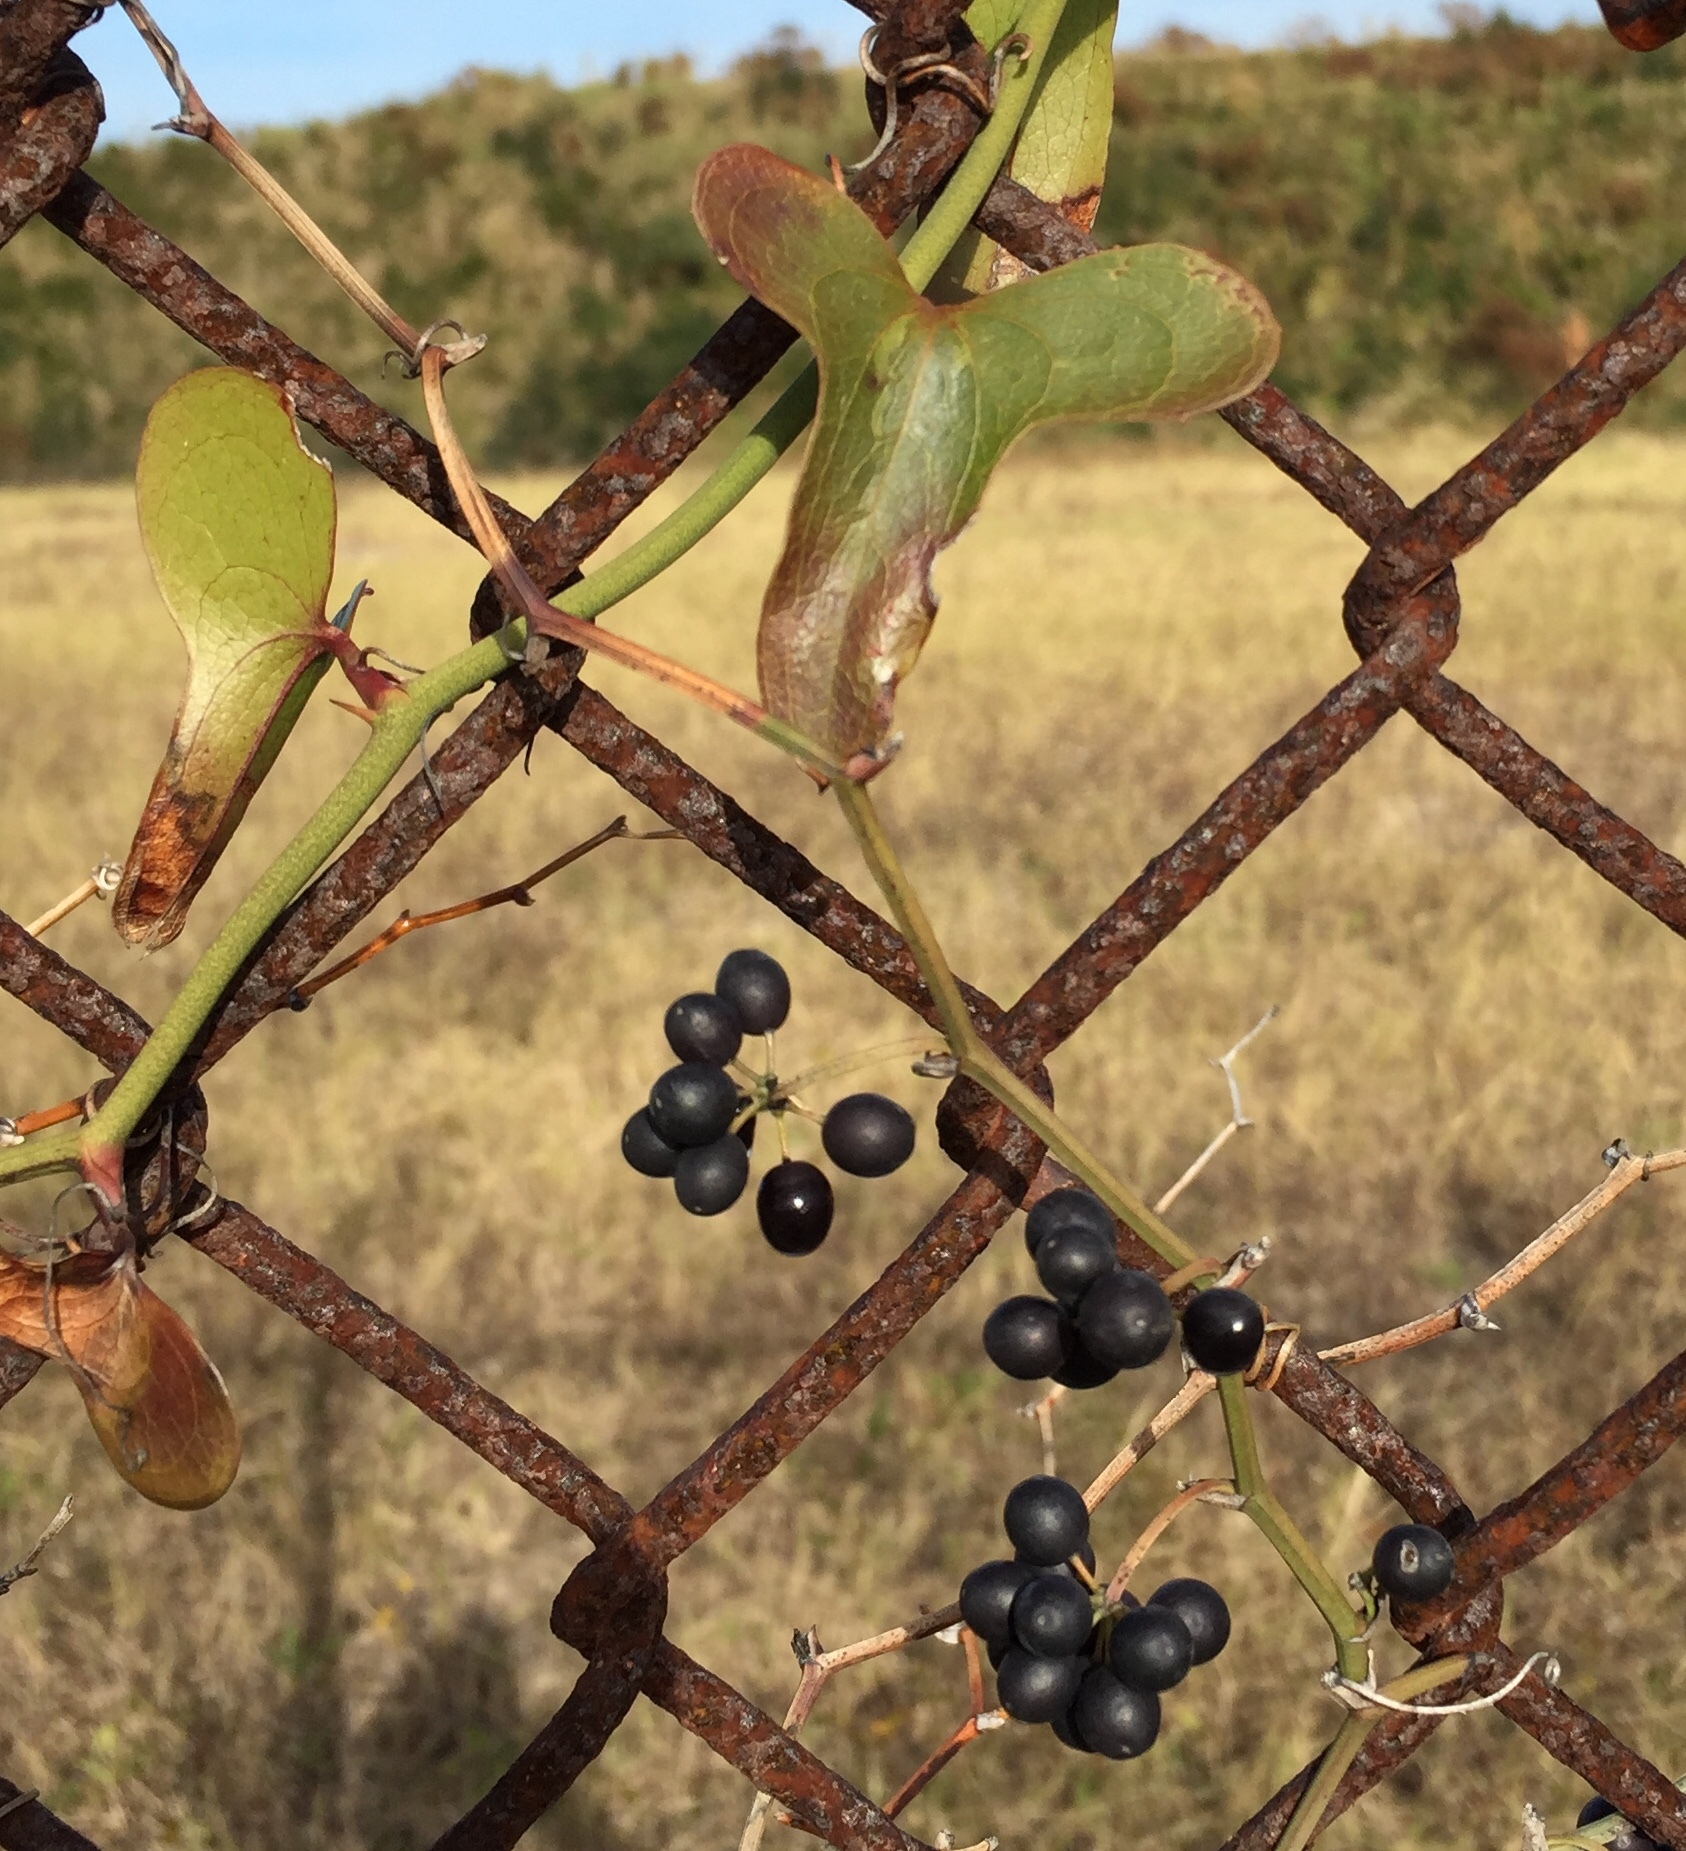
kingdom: Plantae
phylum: Tracheophyta
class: Liliopsida
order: Liliales
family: Smilacaceae
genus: Smilax
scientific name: Smilax bona-nox
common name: Catbrier
